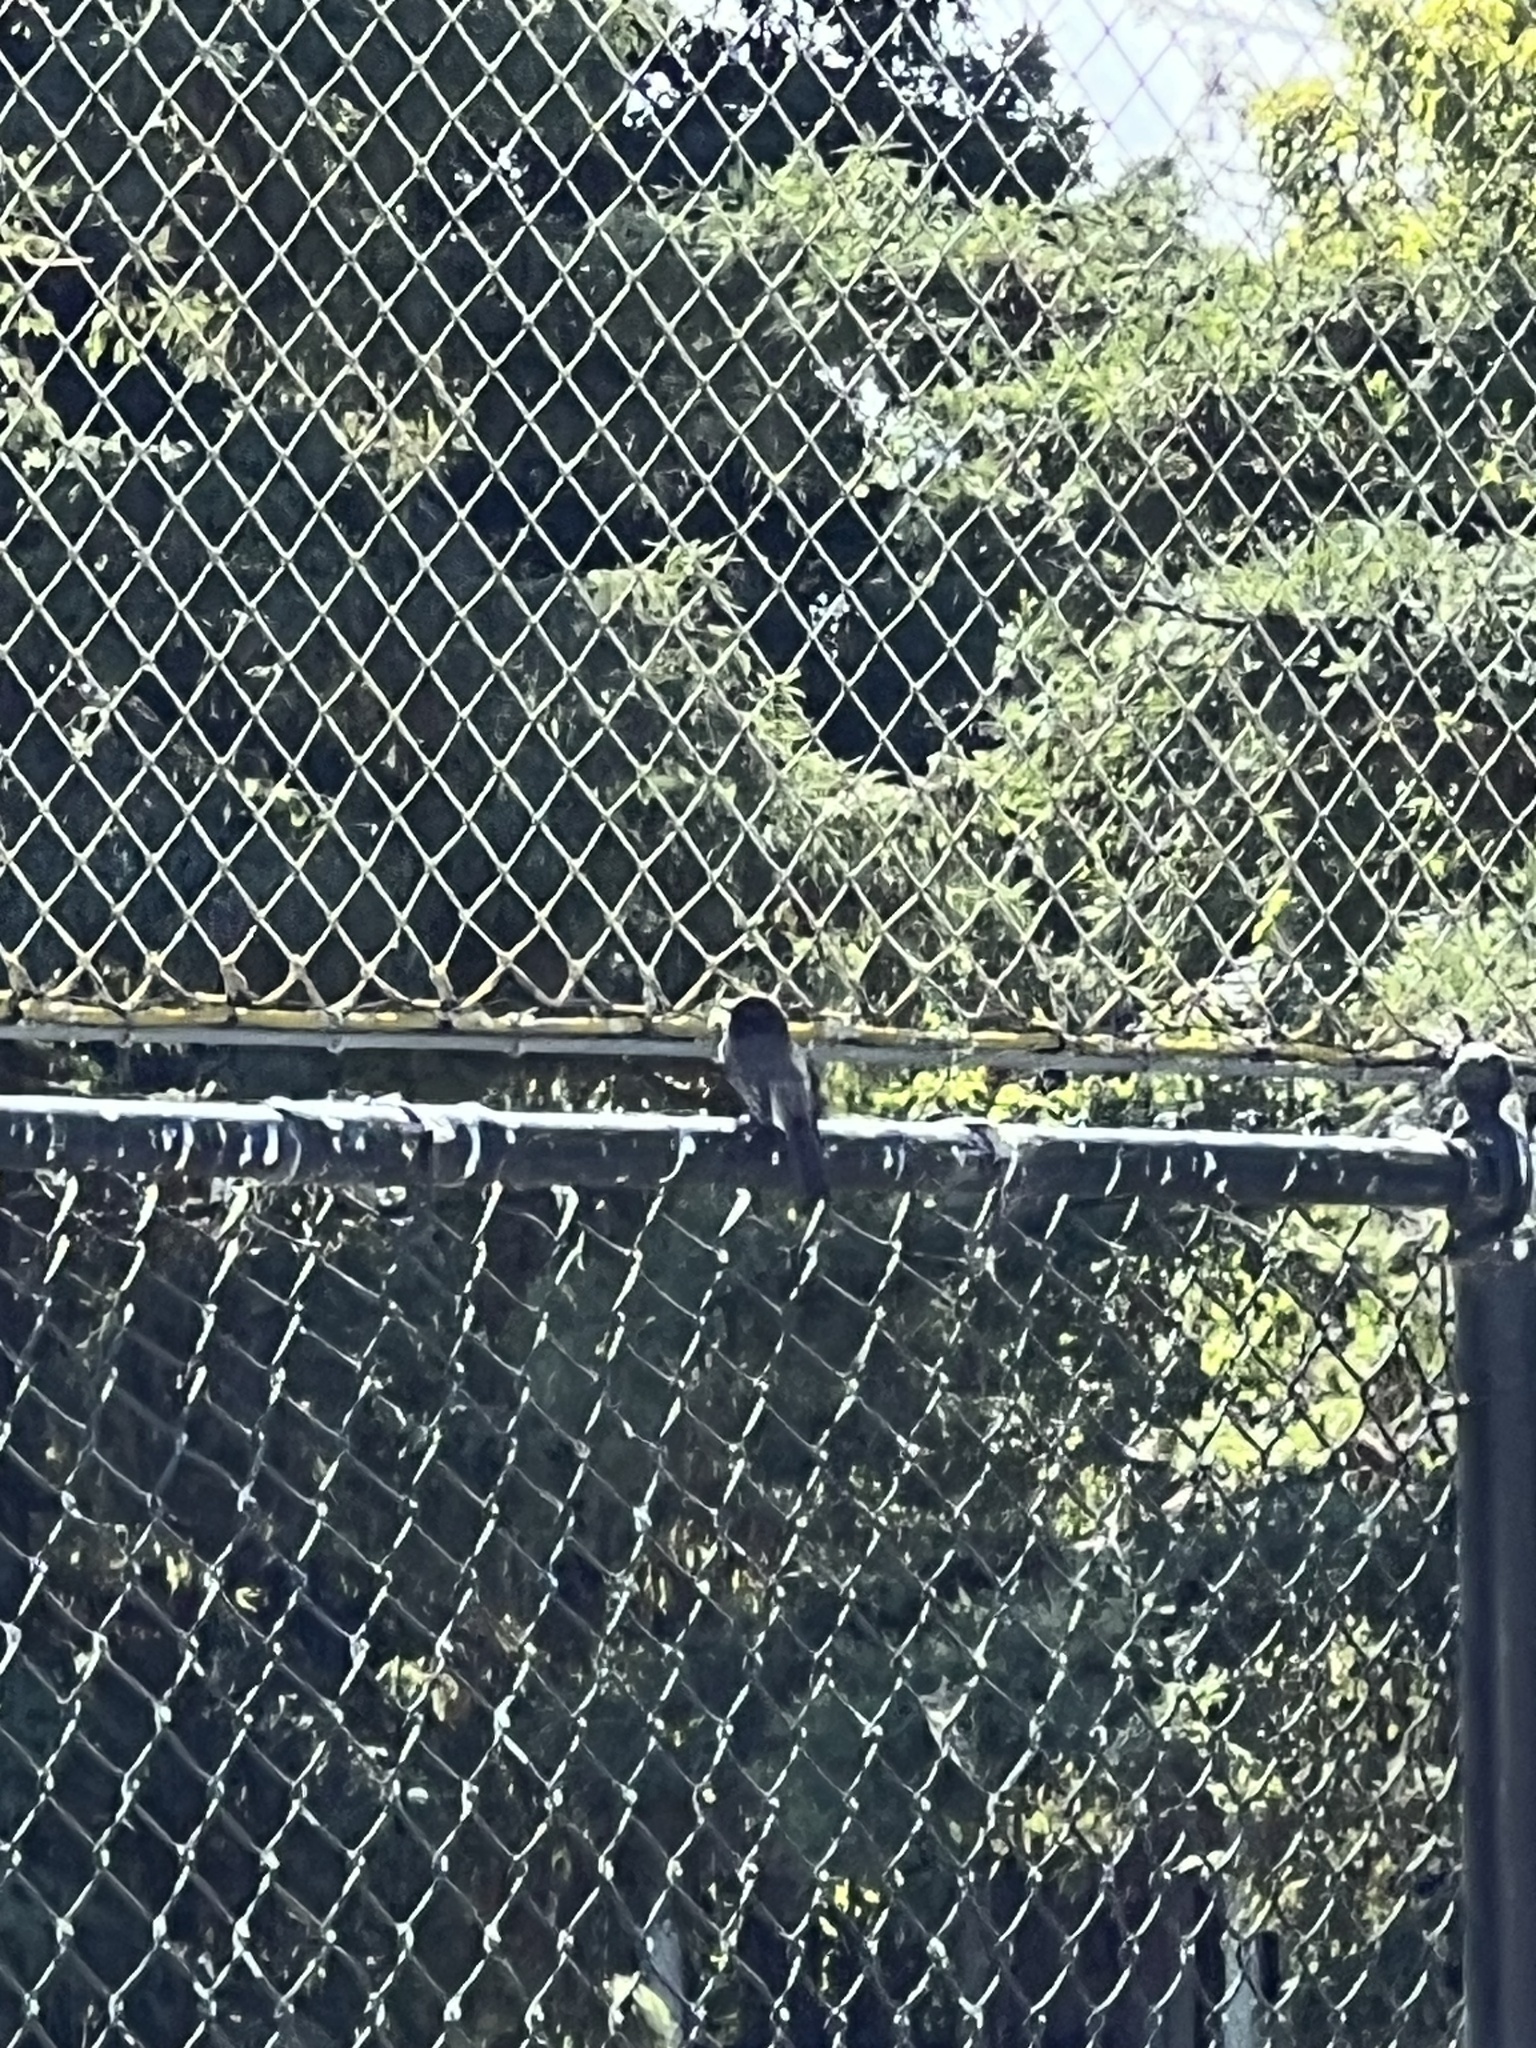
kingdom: Animalia
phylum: Chordata
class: Aves
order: Passeriformes
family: Tyrannidae
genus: Sayornis
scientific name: Sayornis nigricans
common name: Black phoebe
